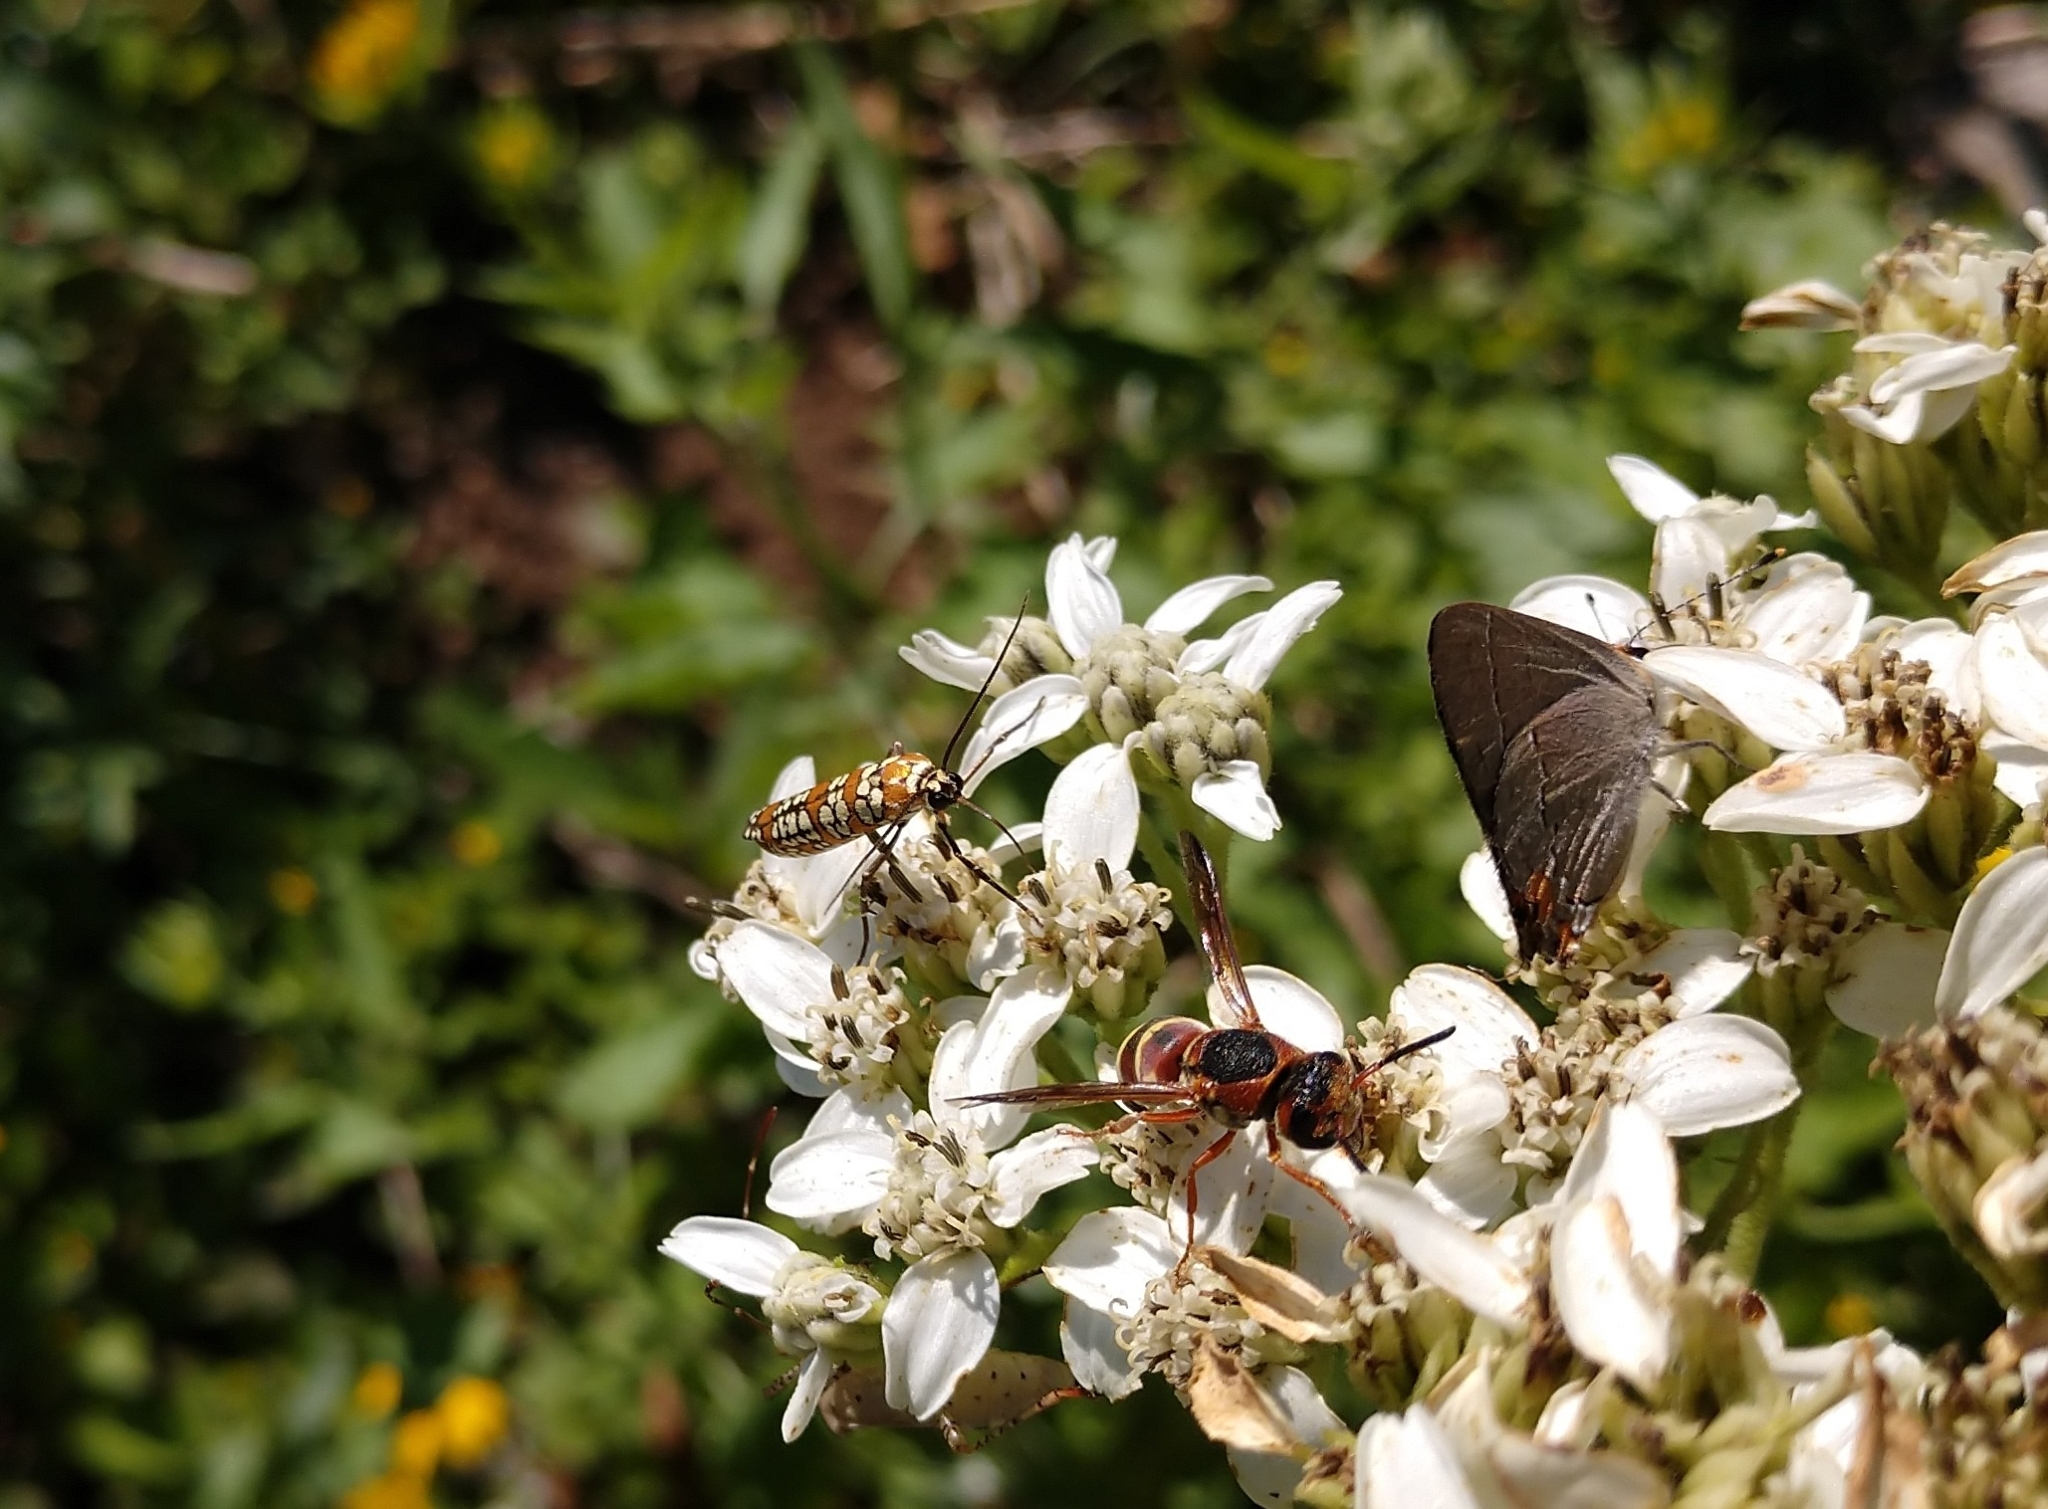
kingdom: Animalia
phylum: Arthropoda
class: Insecta
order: Lepidoptera
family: Attevidae
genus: Atteva
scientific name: Atteva punctella
